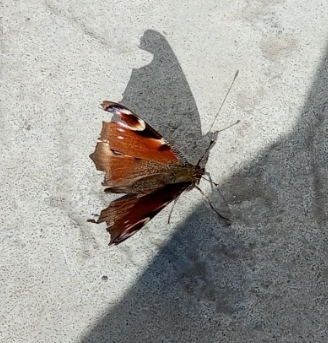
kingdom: Animalia
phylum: Arthropoda
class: Insecta
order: Lepidoptera
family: Nymphalidae
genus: Aglais
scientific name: Aglais io
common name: Peacock
